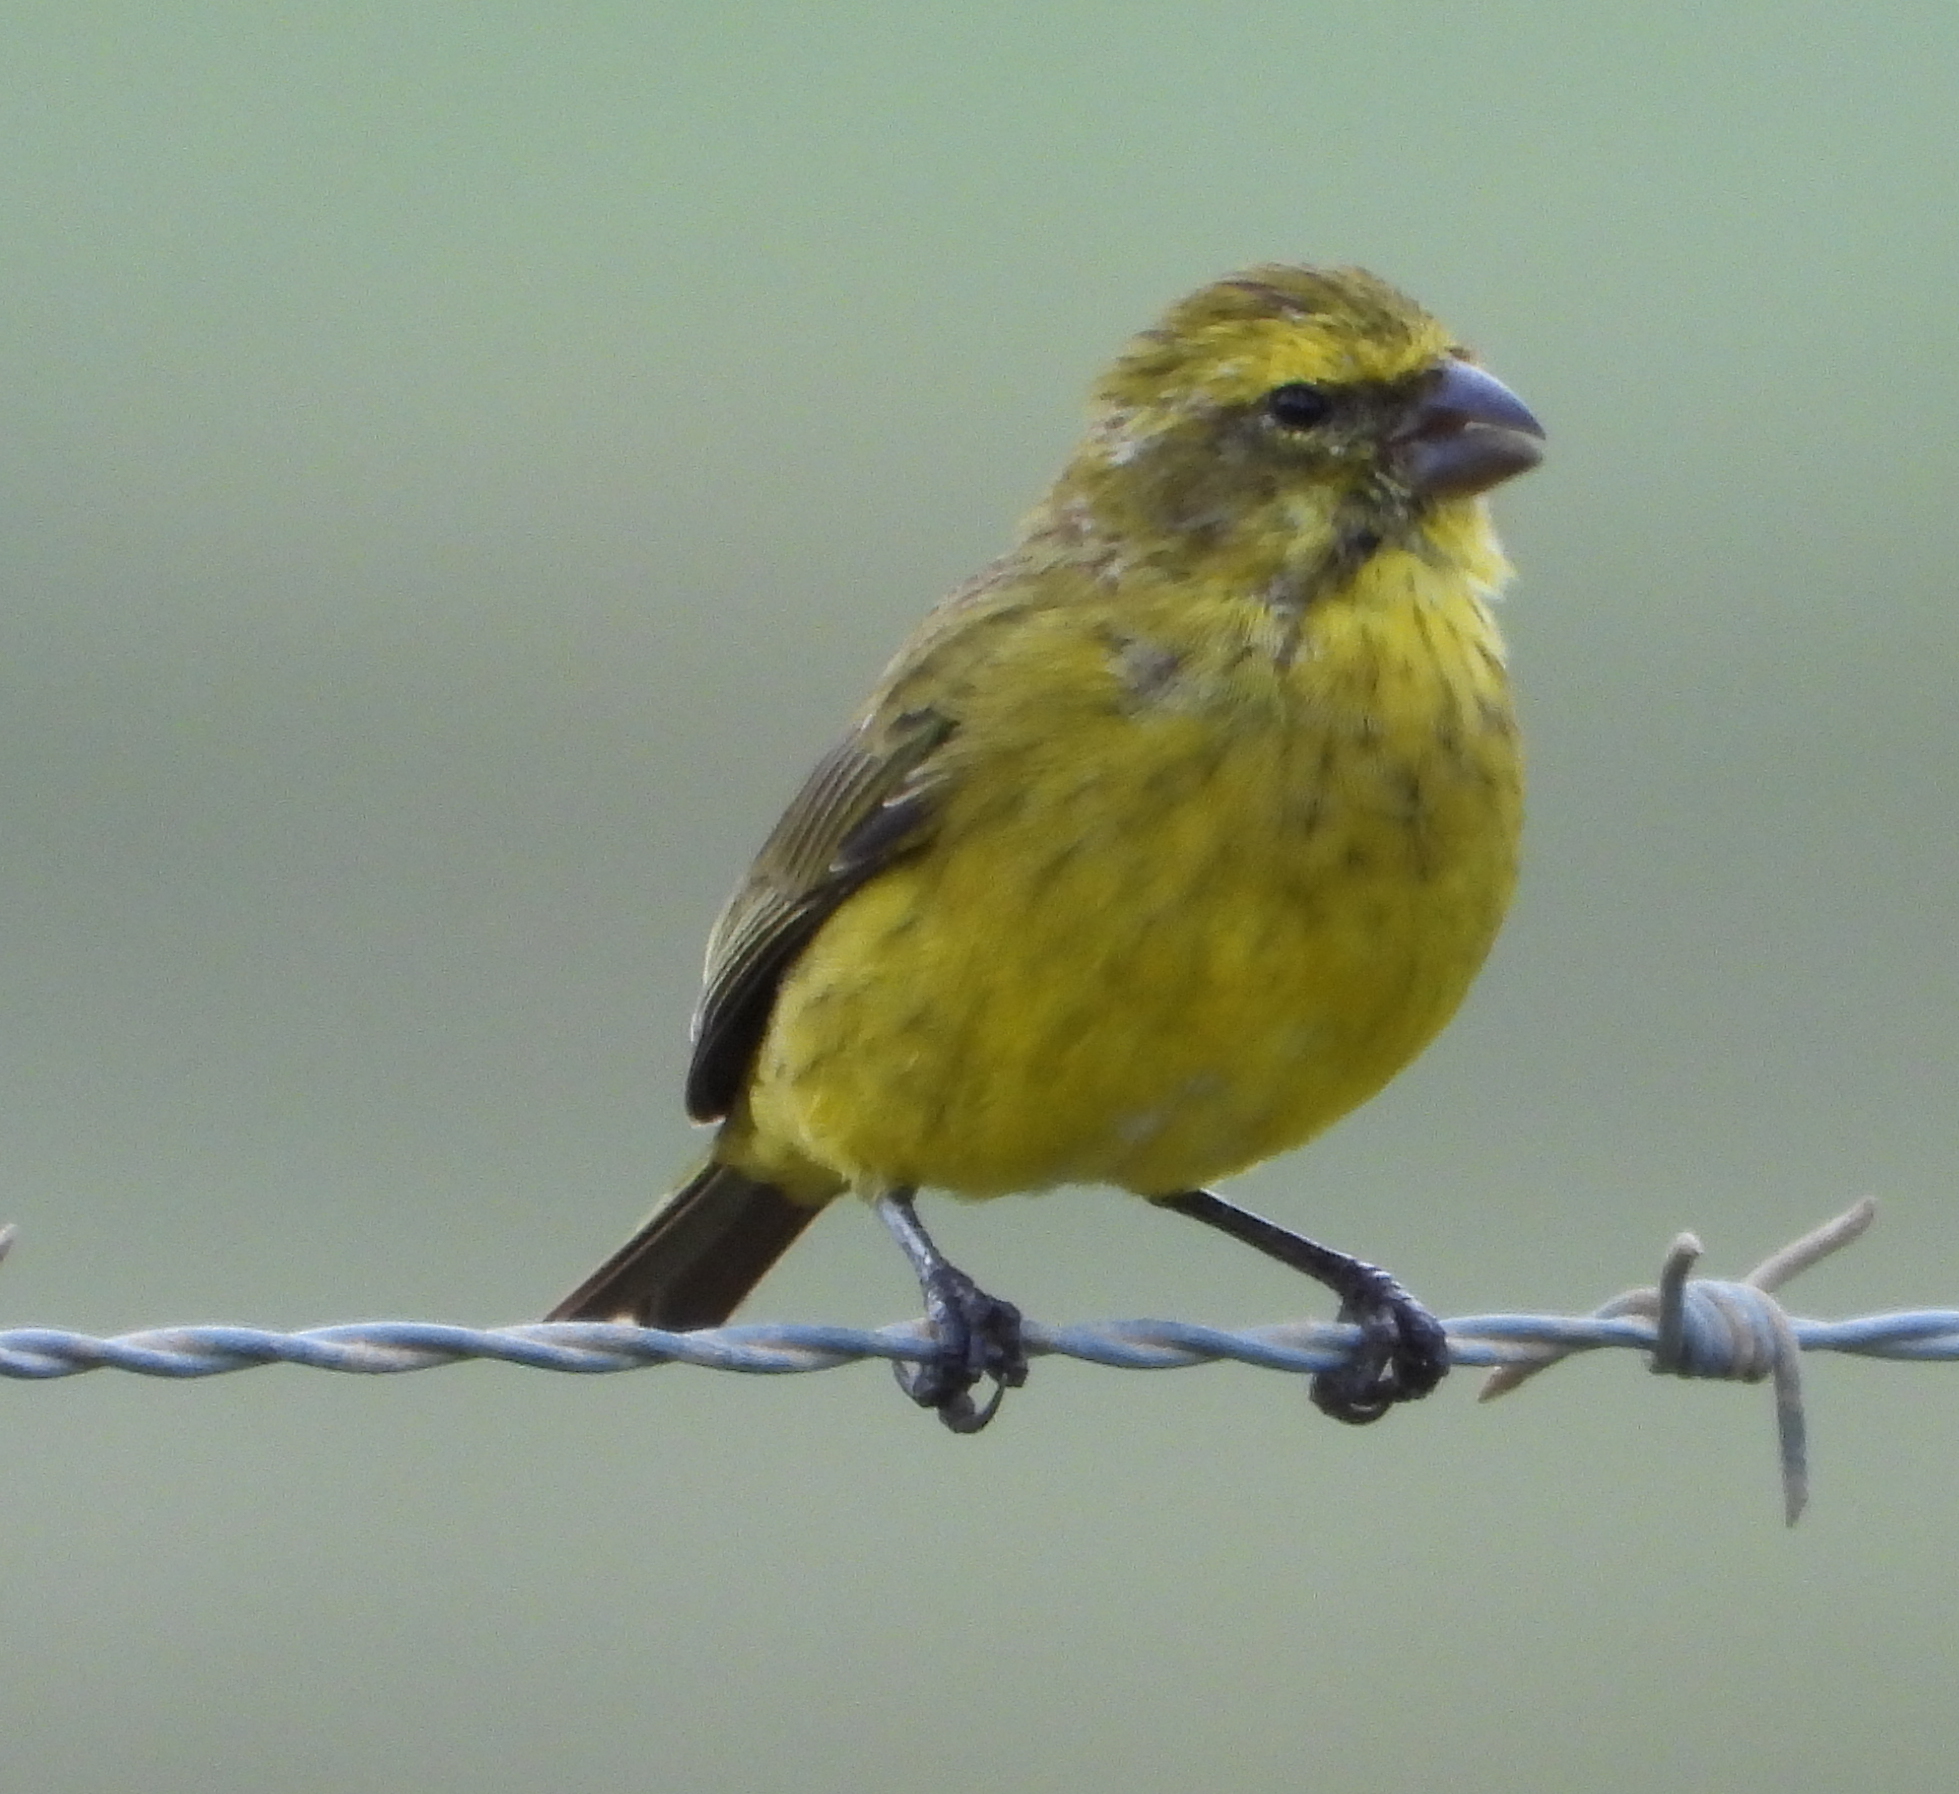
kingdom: Animalia
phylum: Chordata
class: Aves
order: Passeriformes
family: Fringillidae
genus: Crithagra
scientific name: Crithagra flaviventris
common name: Yellow canary
